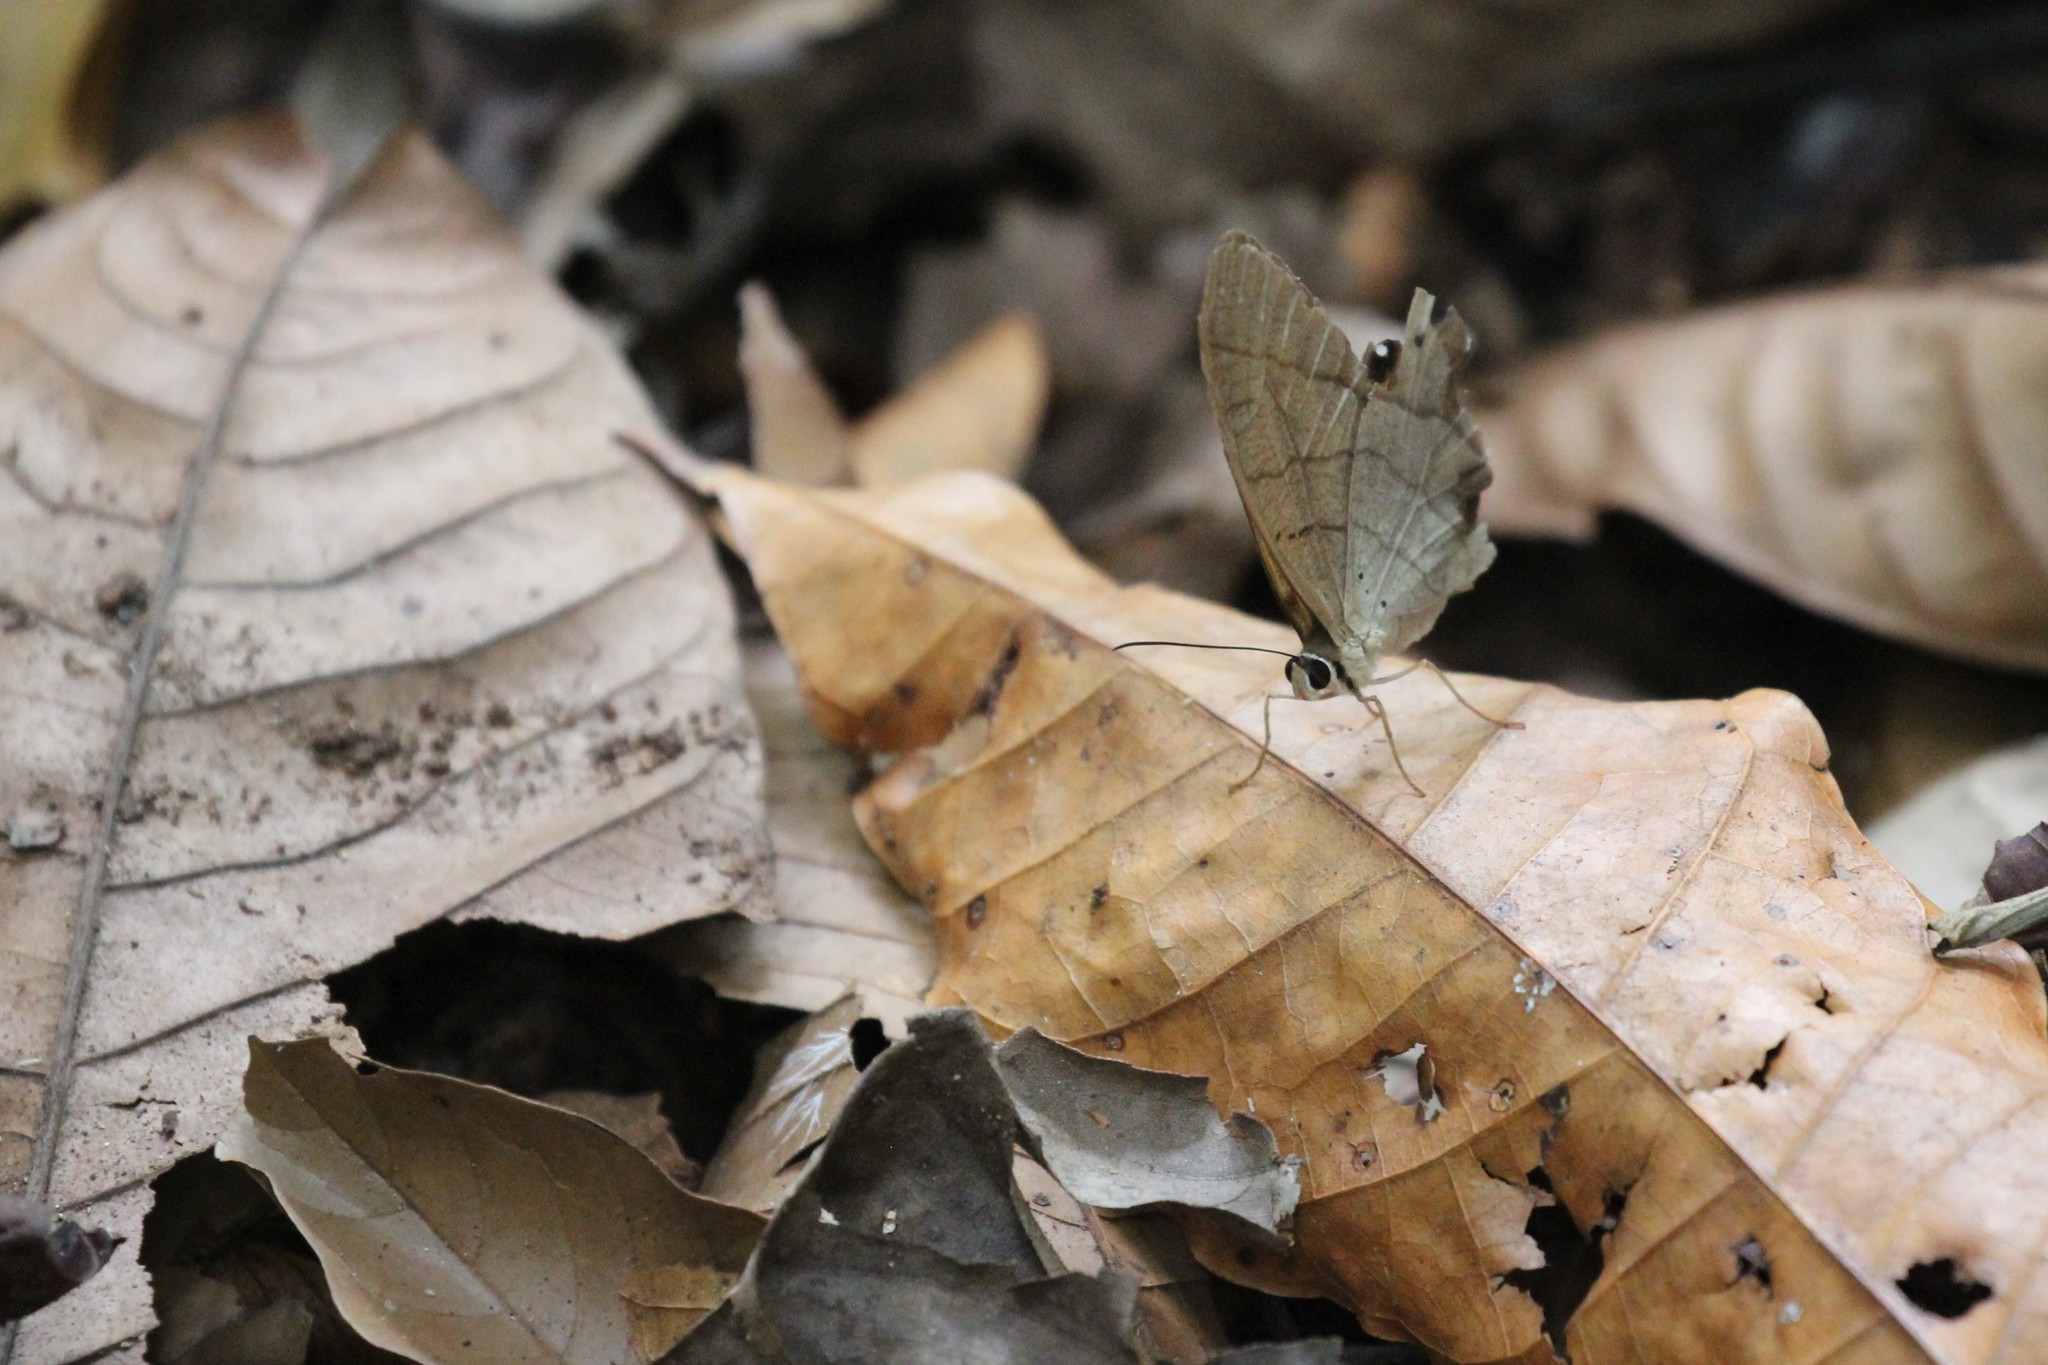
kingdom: Animalia
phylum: Arthropoda
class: Insecta
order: Lepidoptera
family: Nymphalidae
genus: Pierella
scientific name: Pierella lena
